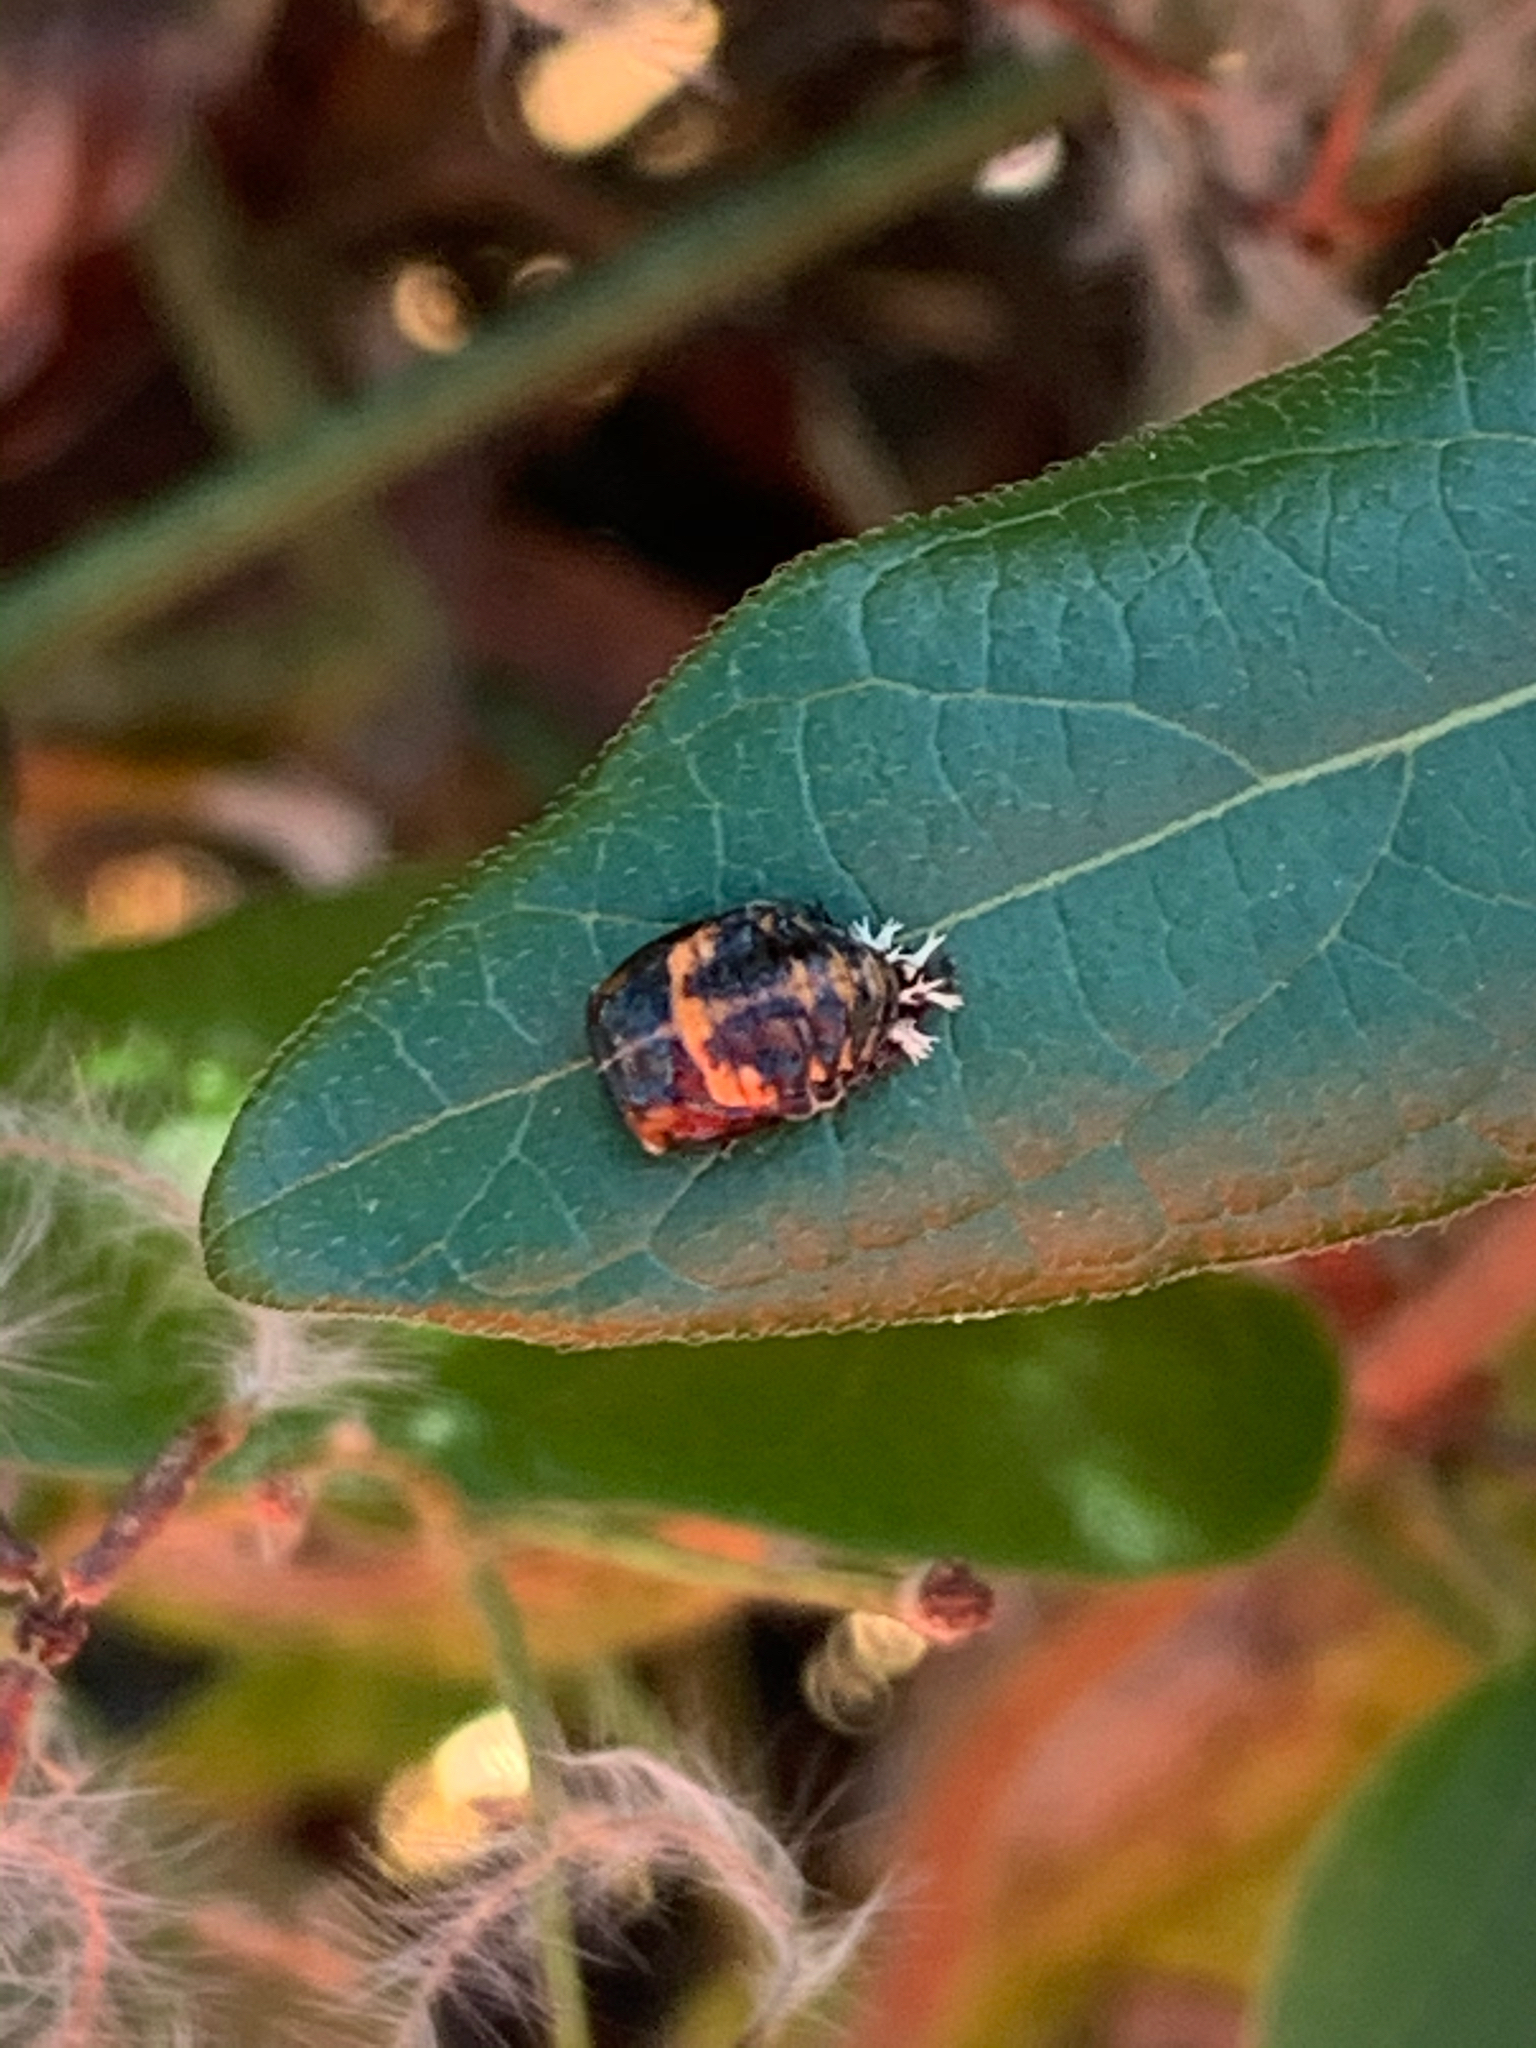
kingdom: Animalia
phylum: Arthropoda
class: Insecta
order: Coleoptera
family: Coccinellidae
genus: Harmonia
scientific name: Harmonia axyridis
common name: Harlequin ladybird
